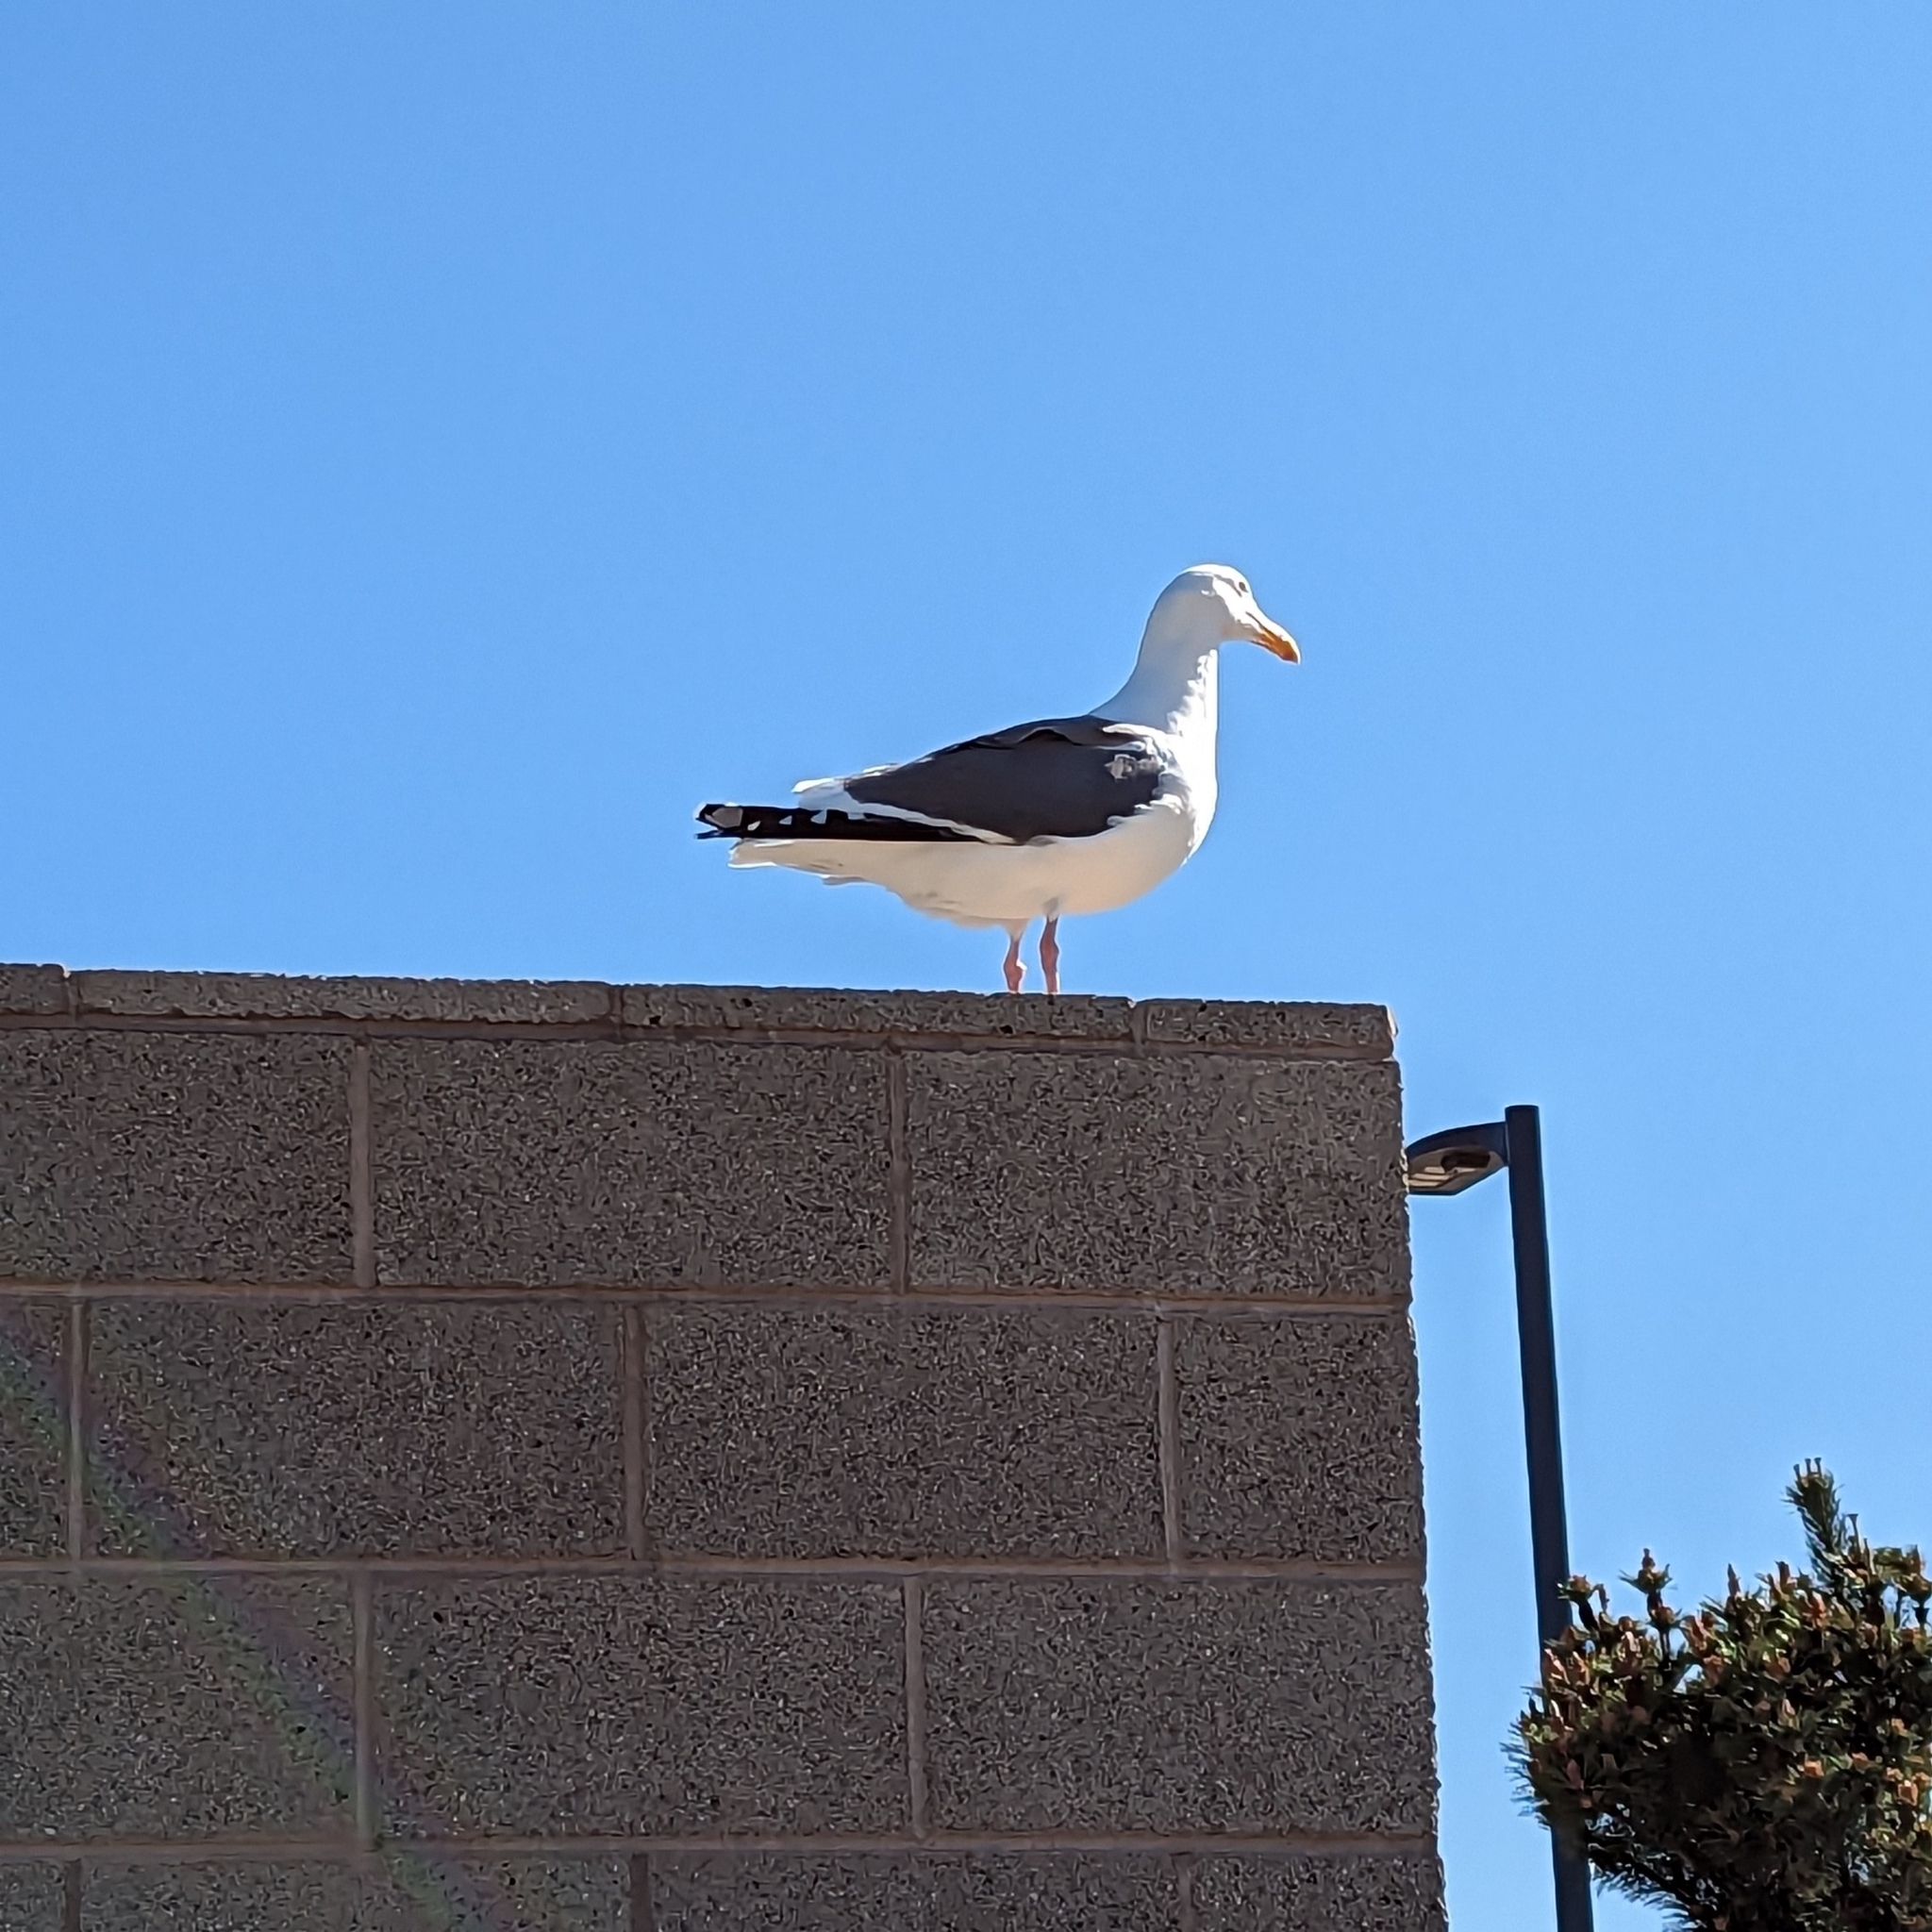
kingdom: Animalia
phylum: Chordata
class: Aves
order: Charadriiformes
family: Laridae
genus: Larus
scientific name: Larus occidentalis
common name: Western gull
